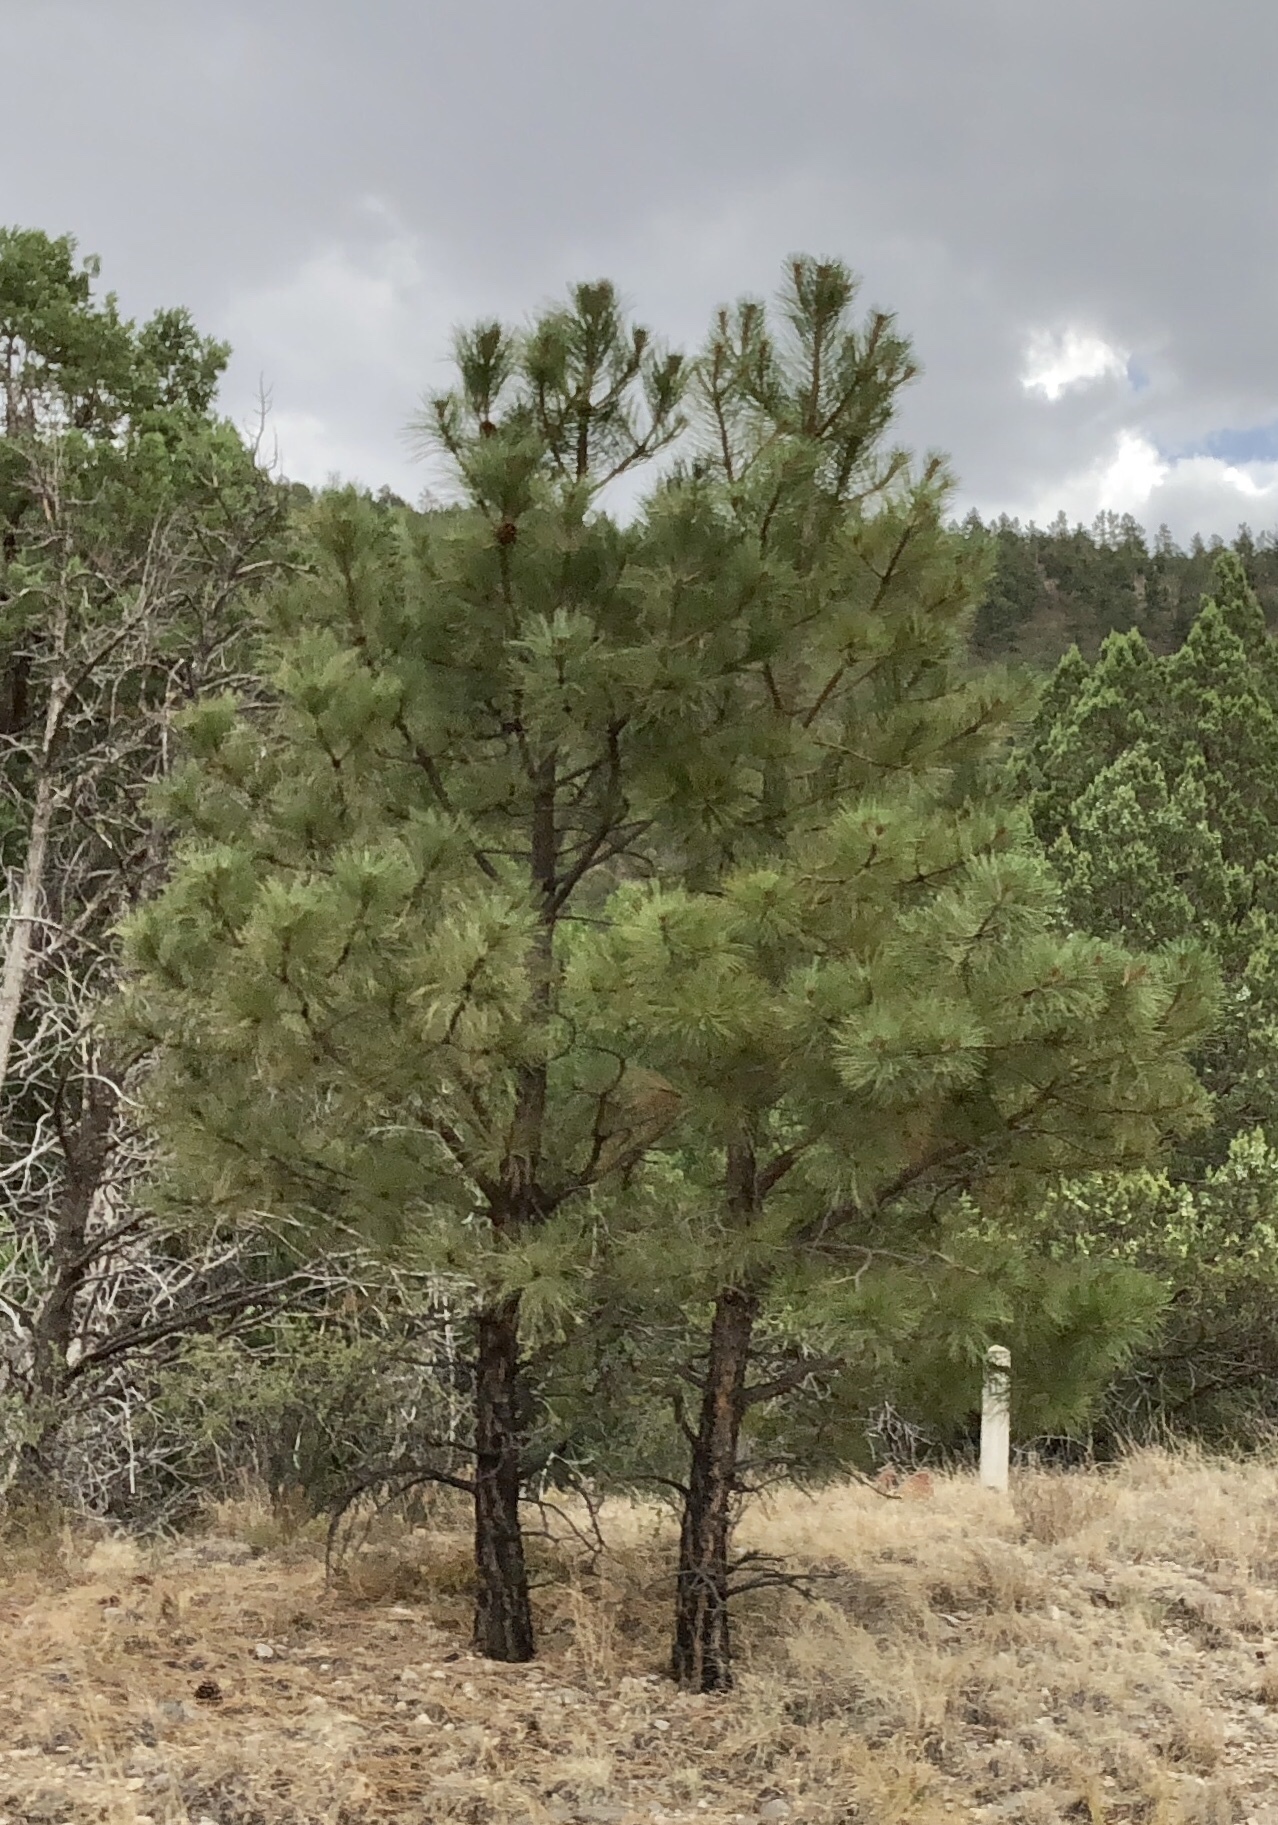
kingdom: Plantae
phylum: Tracheophyta
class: Pinopsida
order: Pinales
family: Pinaceae
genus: Pinus
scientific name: Pinus ponderosa
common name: Western yellow-pine
